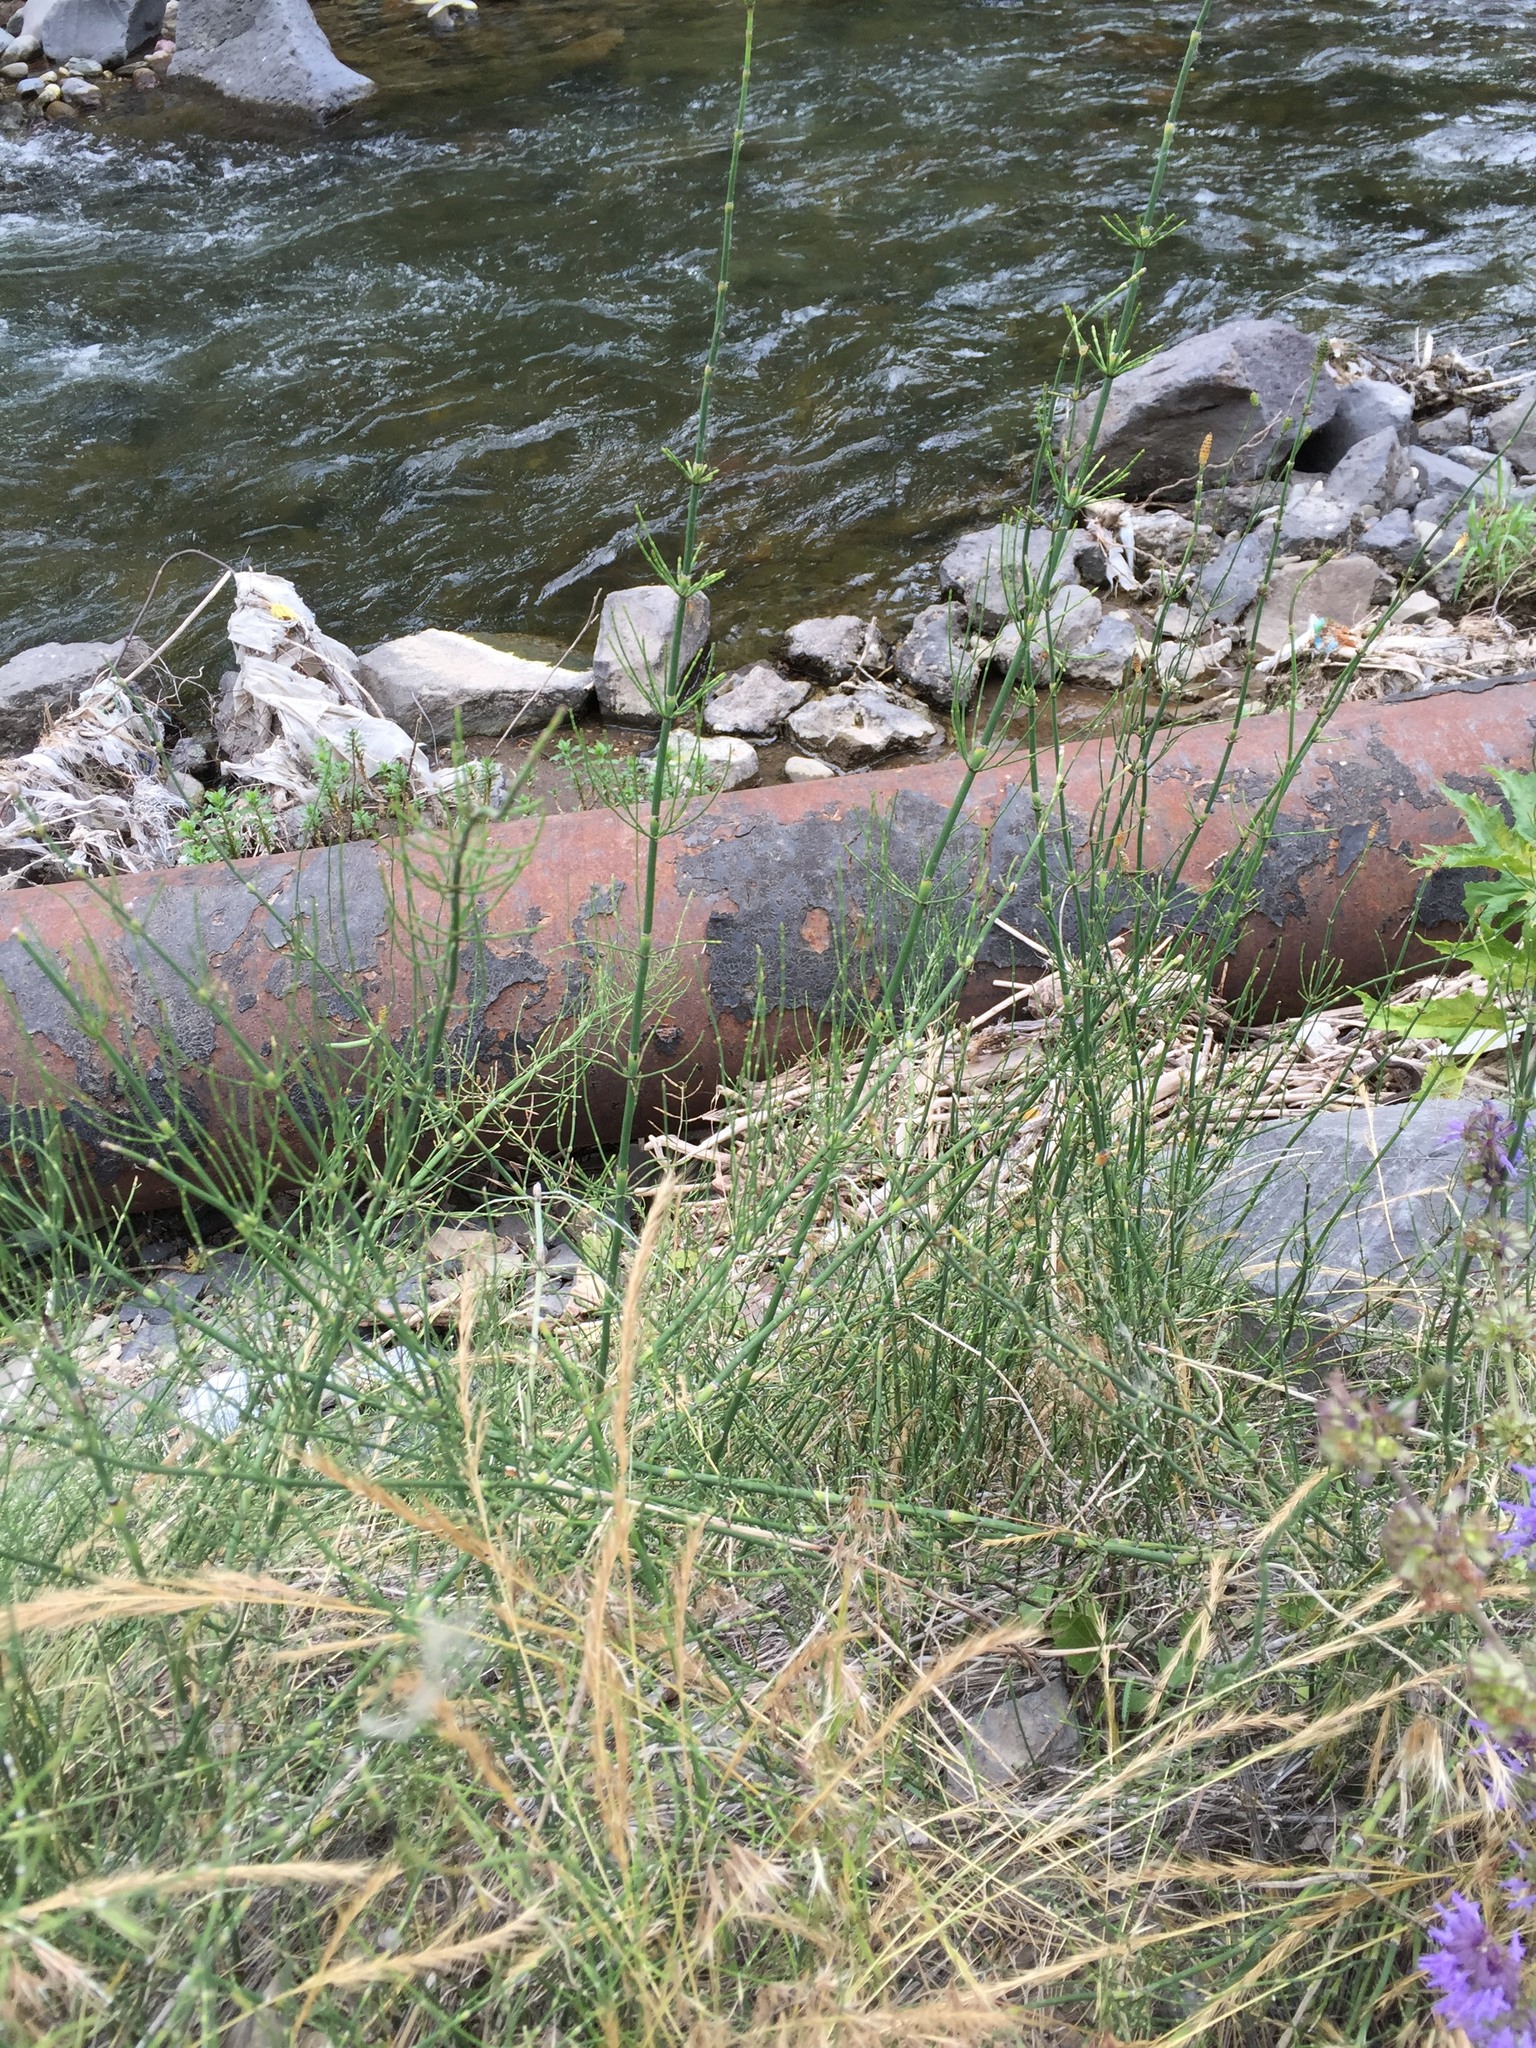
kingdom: Plantae
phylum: Tracheophyta
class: Polypodiopsida
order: Equisetales
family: Equisetaceae
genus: Equisetum
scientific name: Equisetum ramosissimum
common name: Branched horsetail
